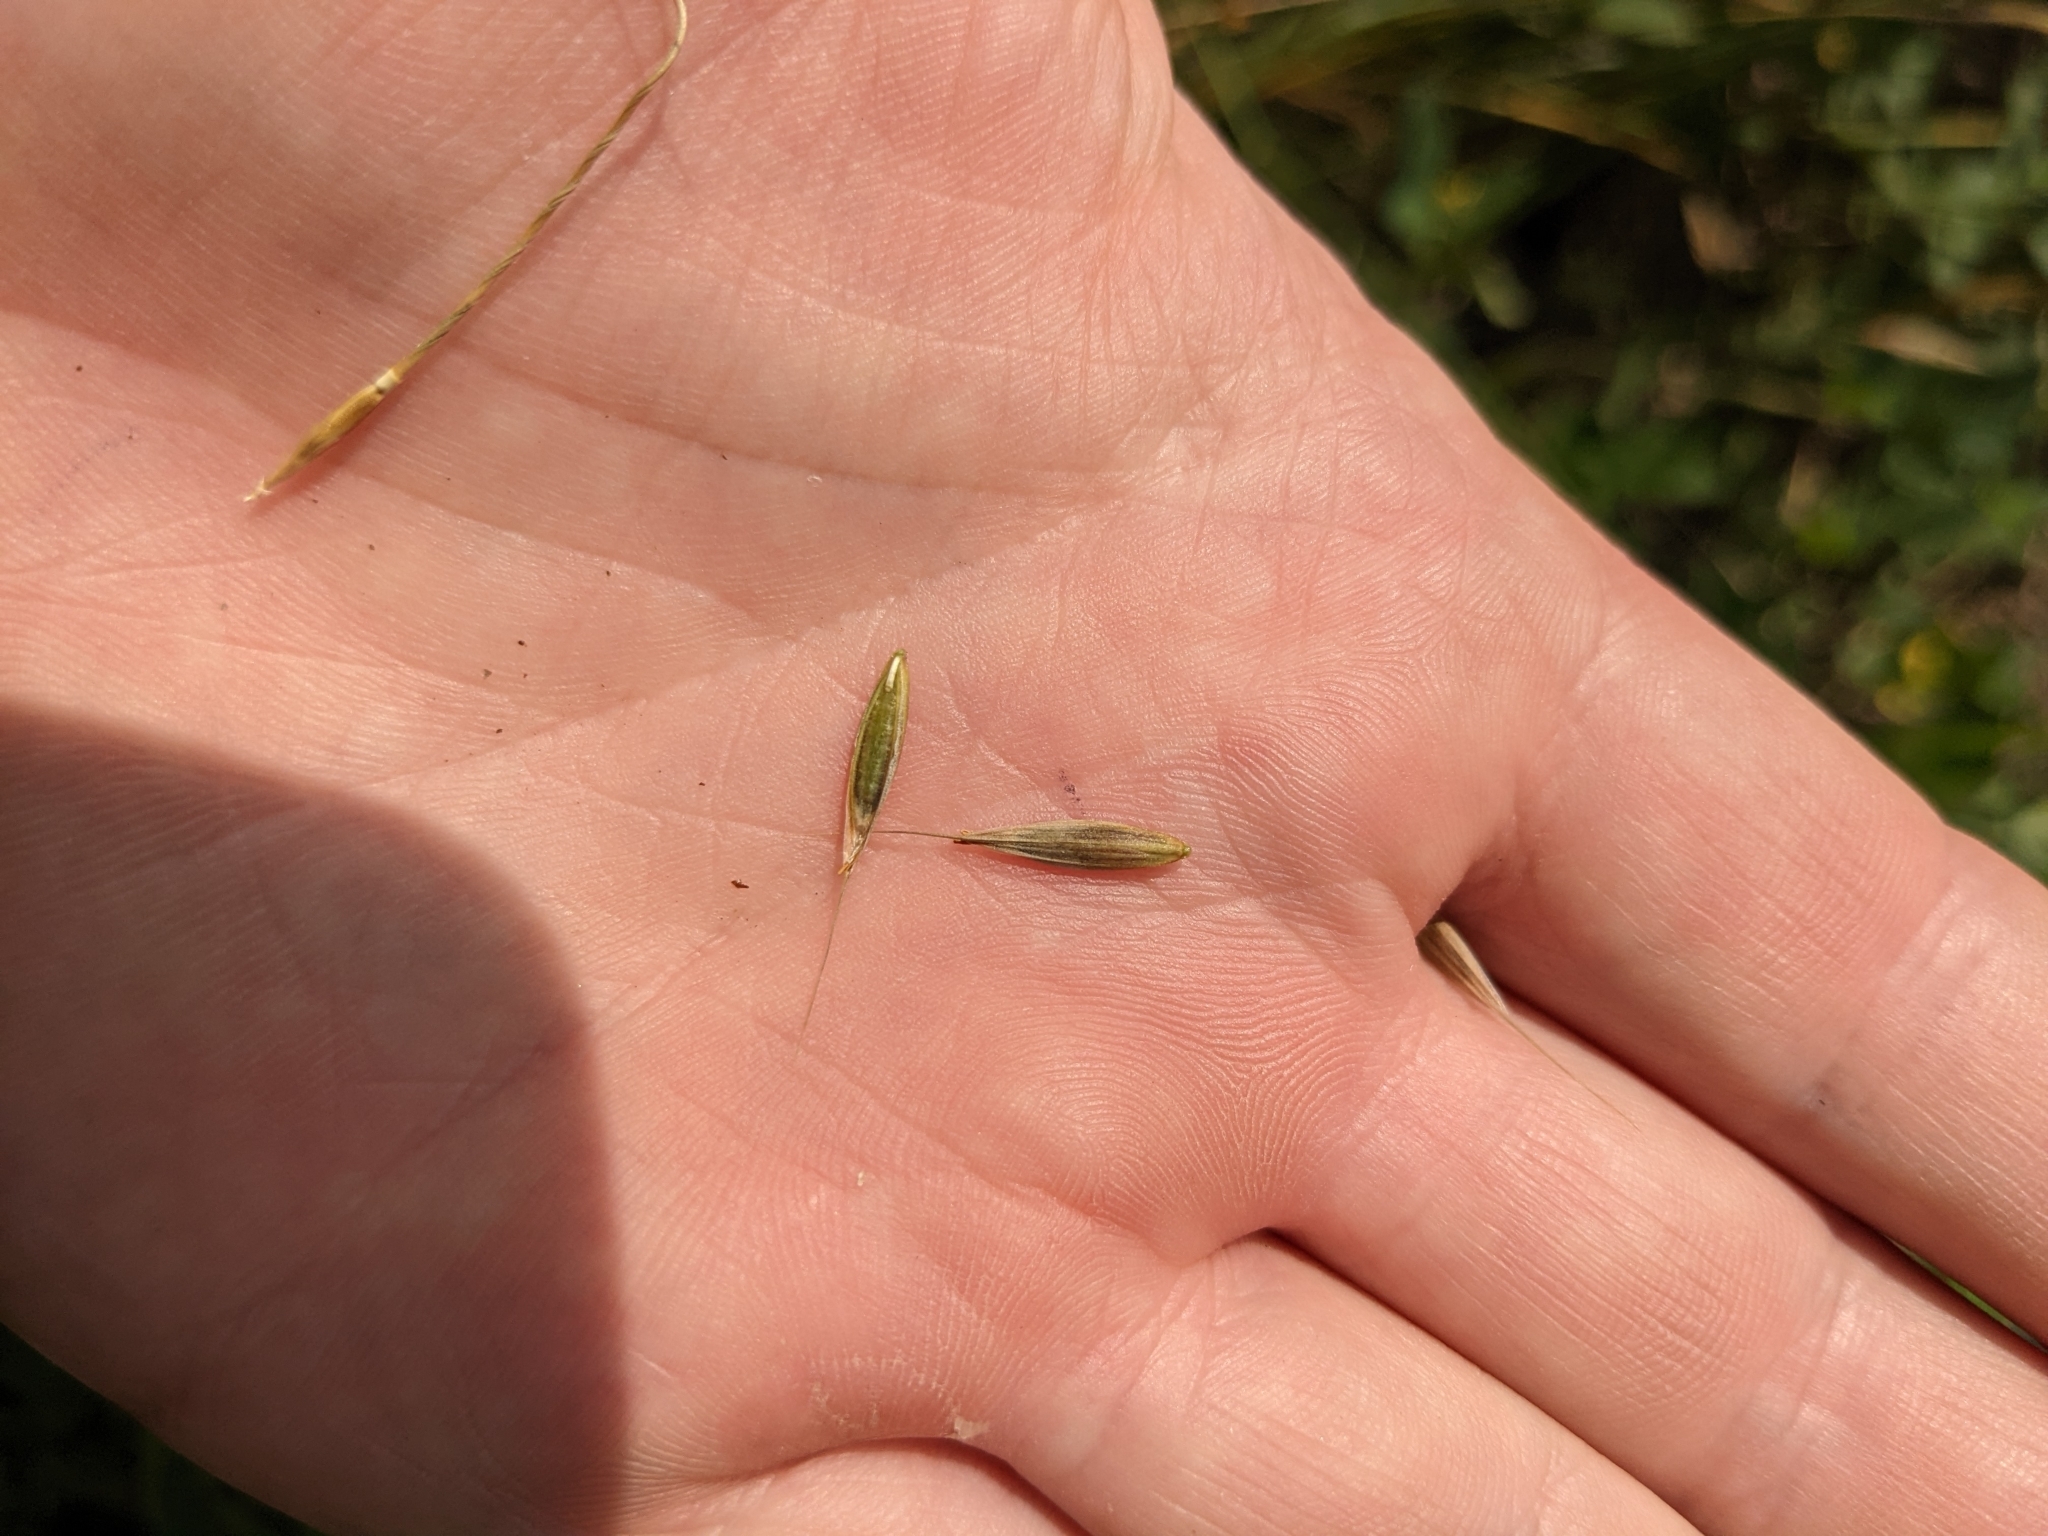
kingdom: Plantae
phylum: Tracheophyta
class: Liliopsida
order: Poales
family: Poaceae
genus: Bromus
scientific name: Bromus texensis
